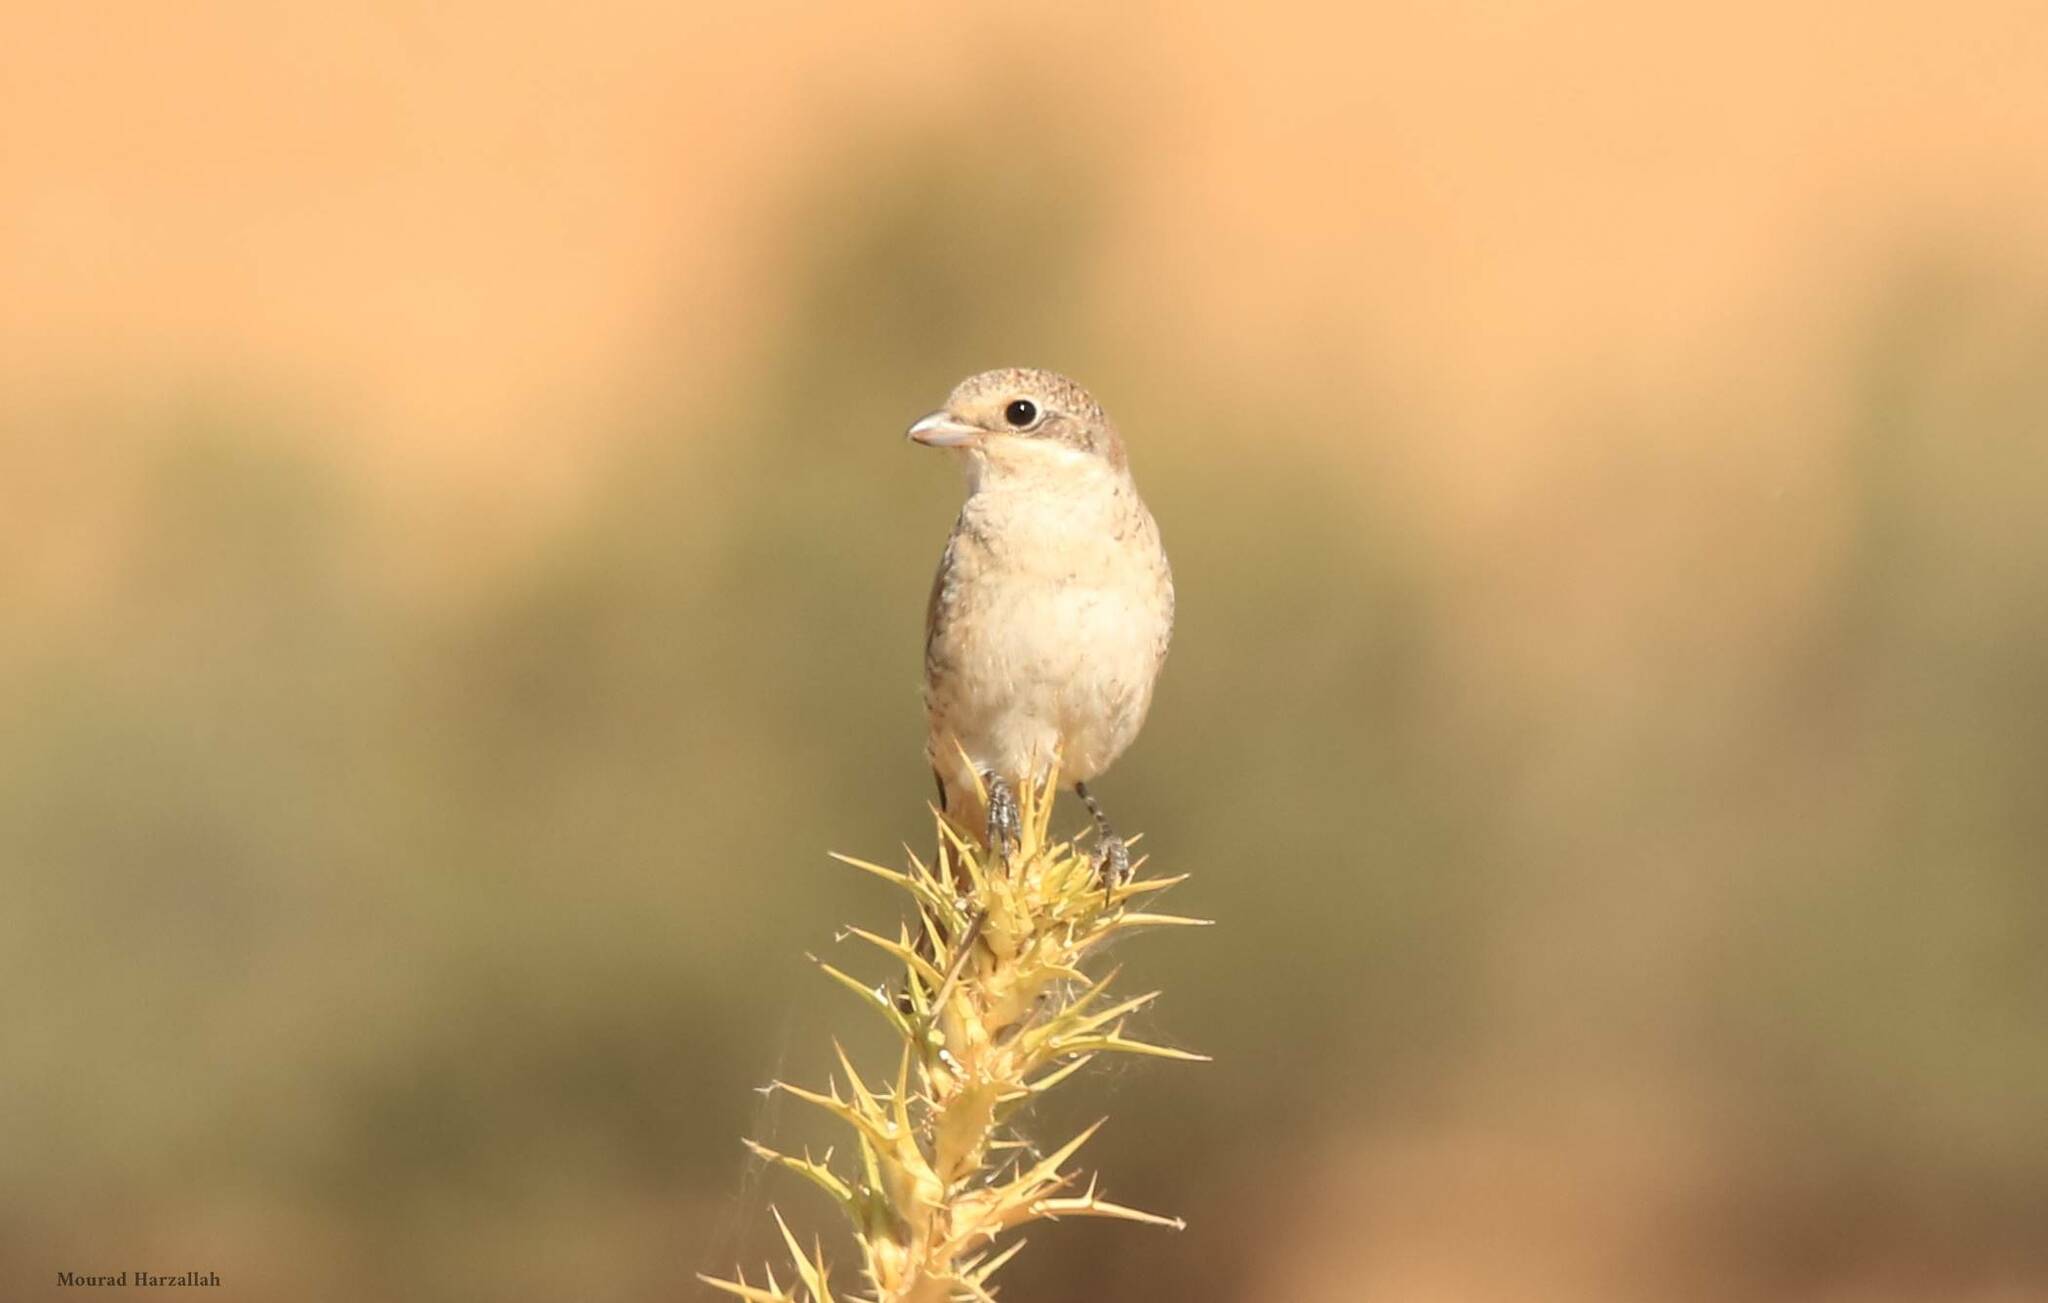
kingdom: Animalia
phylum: Chordata
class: Aves
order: Passeriformes
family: Laniidae
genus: Lanius
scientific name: Lanius senator
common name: Woodchat shrike
